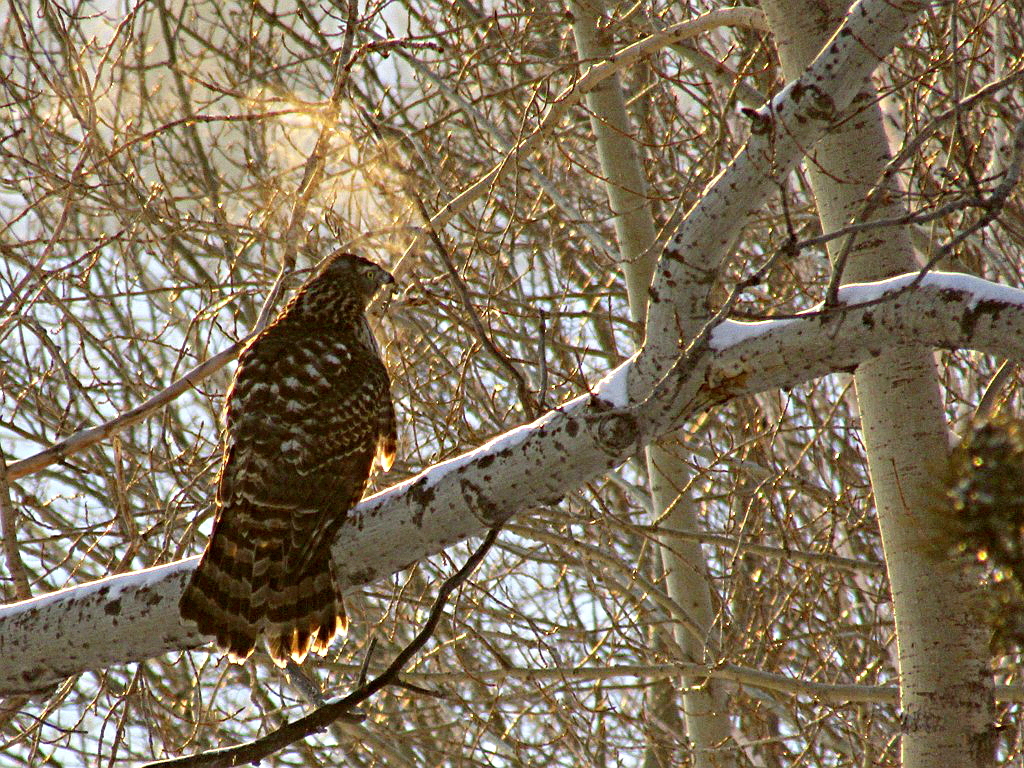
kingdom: Animalia
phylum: Chordata
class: Aves
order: Accipitriformes
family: Accipitridae
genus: Accipiter
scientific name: Accipiter gentilis
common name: Northern goshawk
